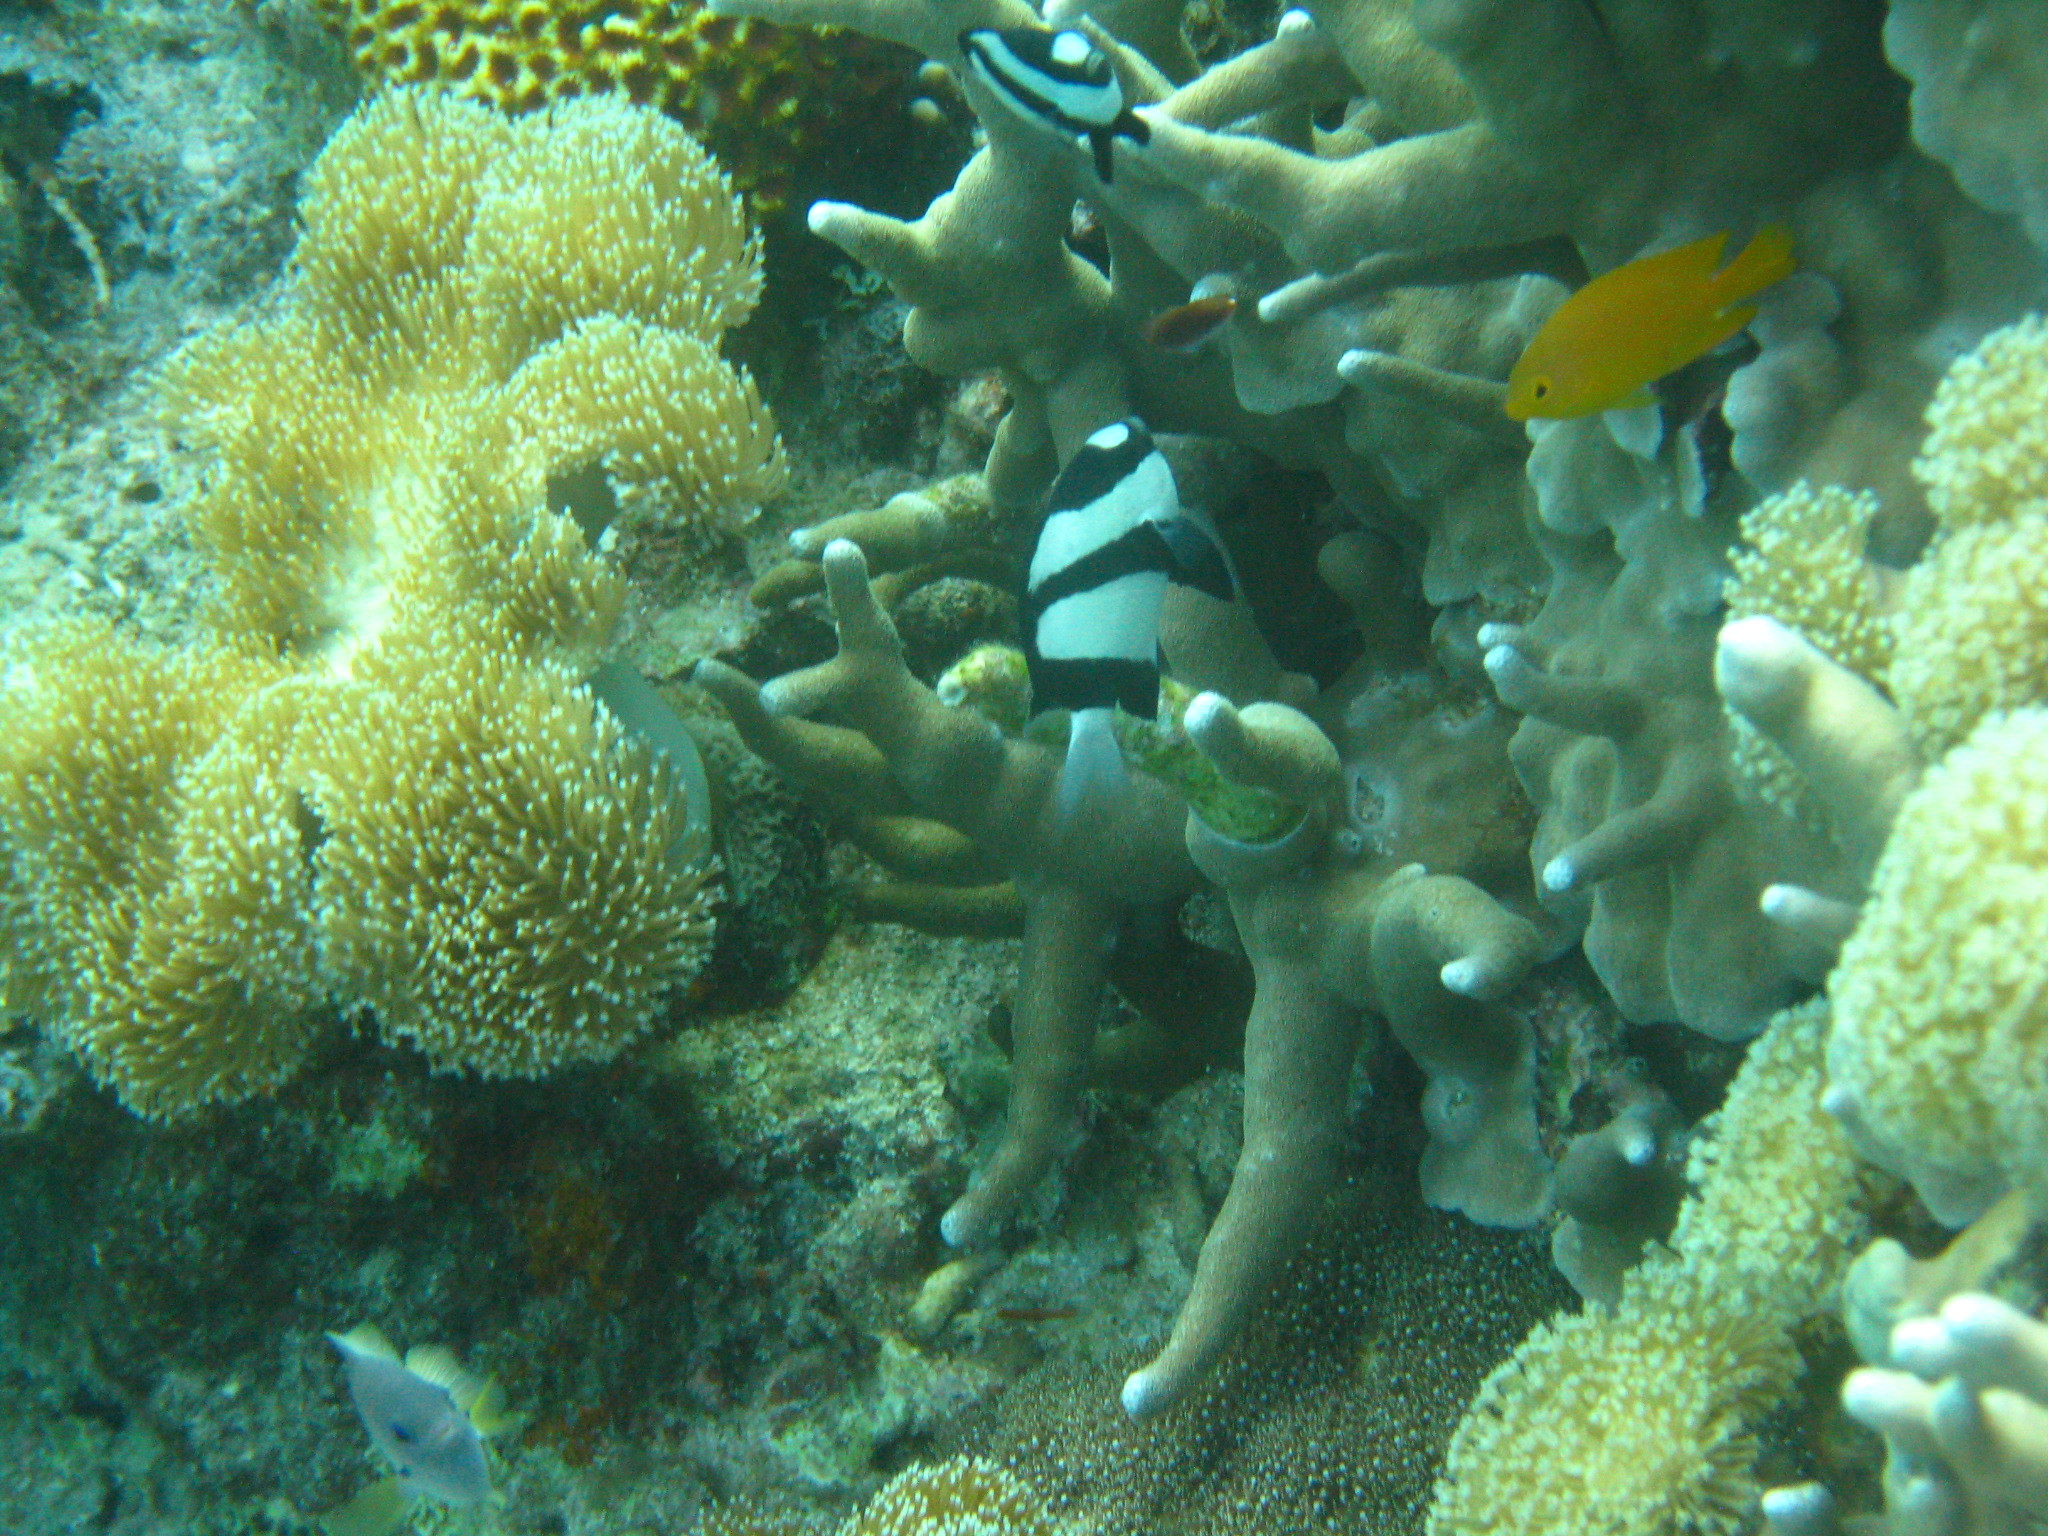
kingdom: Animalia
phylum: Chordata
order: Perciformes
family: Pomacentridae
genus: Dascyllus
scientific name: Dascyllus aruanus
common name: Humbug dascyllus
